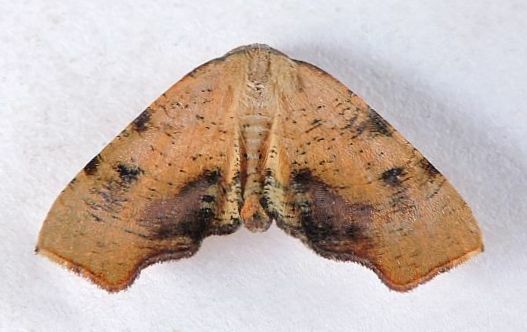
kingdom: Animalia
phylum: Arthropoda
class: Insecta
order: Lepidoptera
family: Geometridae
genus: Plagodis
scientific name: Plagodis fervidaria
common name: Fervid plagodis
